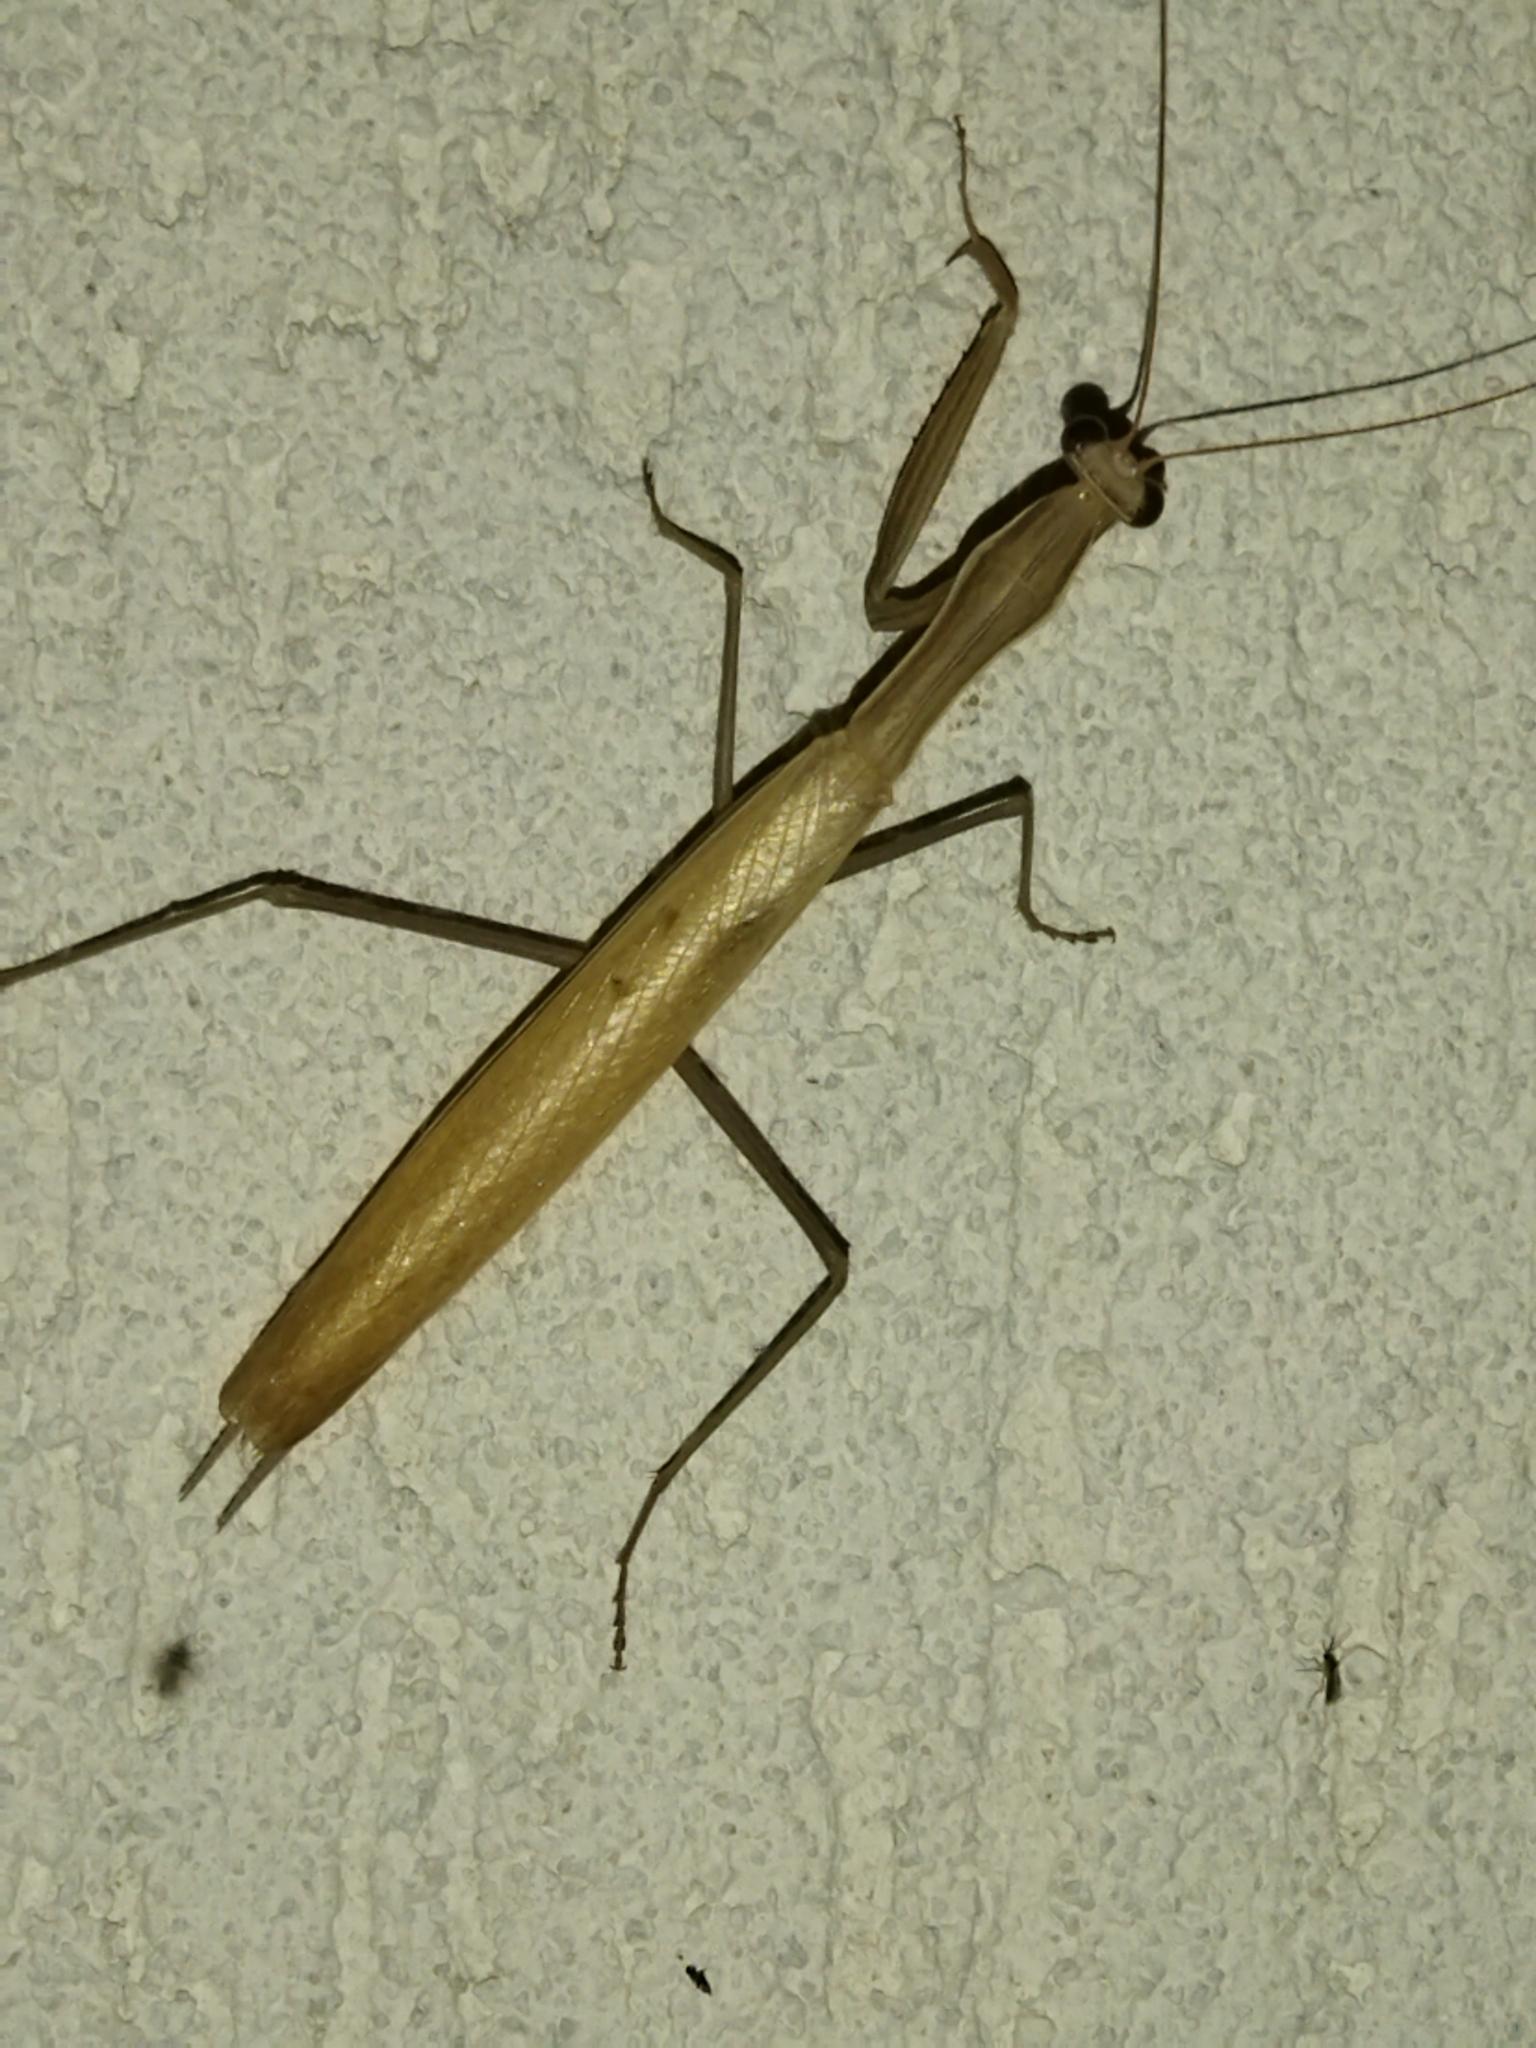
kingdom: Animalia
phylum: Arthropoda
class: Insecta
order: Mantodea
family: Mantidae
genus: Mantis
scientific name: Mantis religiosa
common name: Praying mantis
